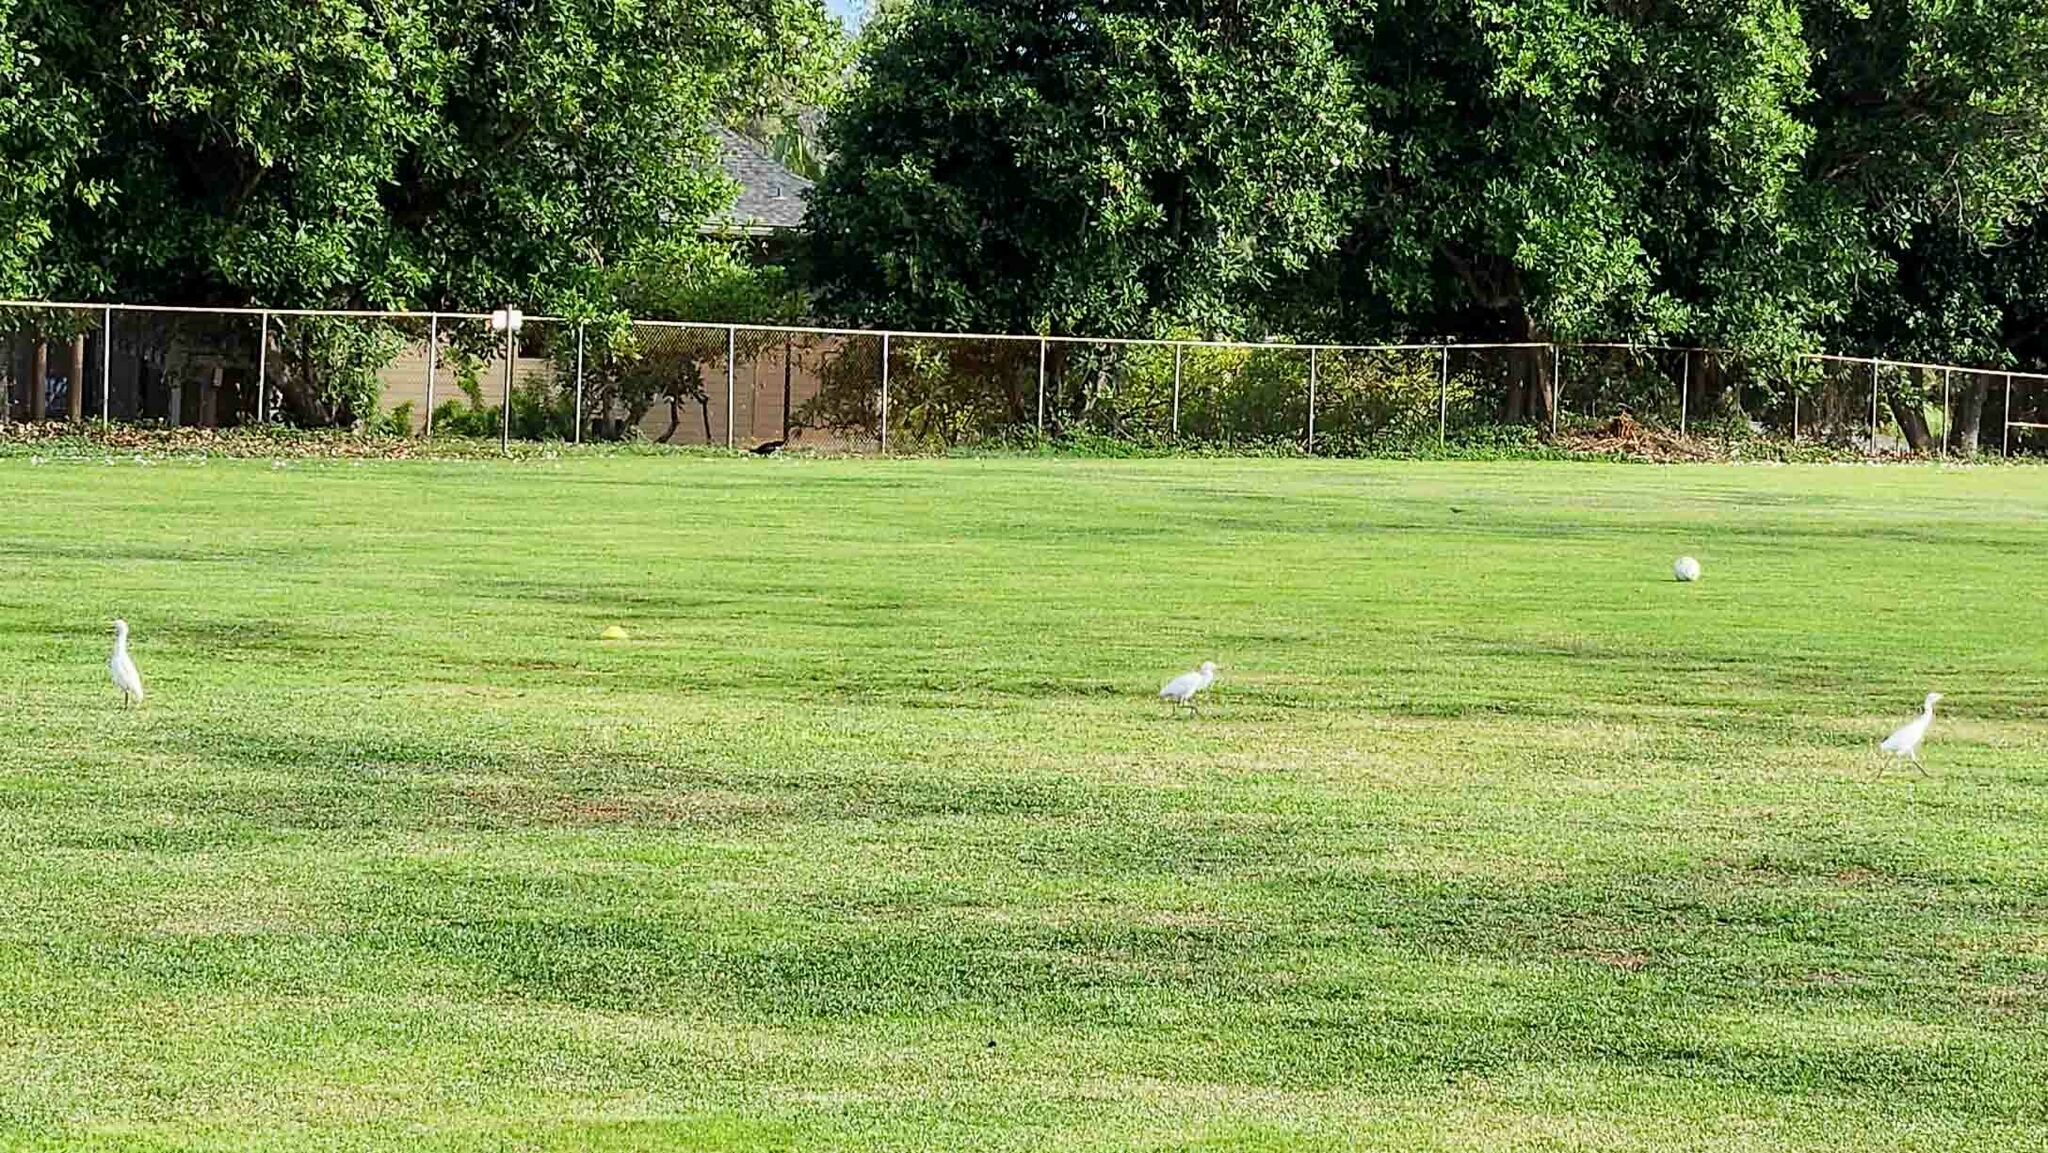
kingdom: Animalia
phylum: Chordata
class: Aves
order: Pelecaniformes
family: Ardeidae
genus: Bubulcus
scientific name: Bubulcus ibis
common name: Cattle egret
